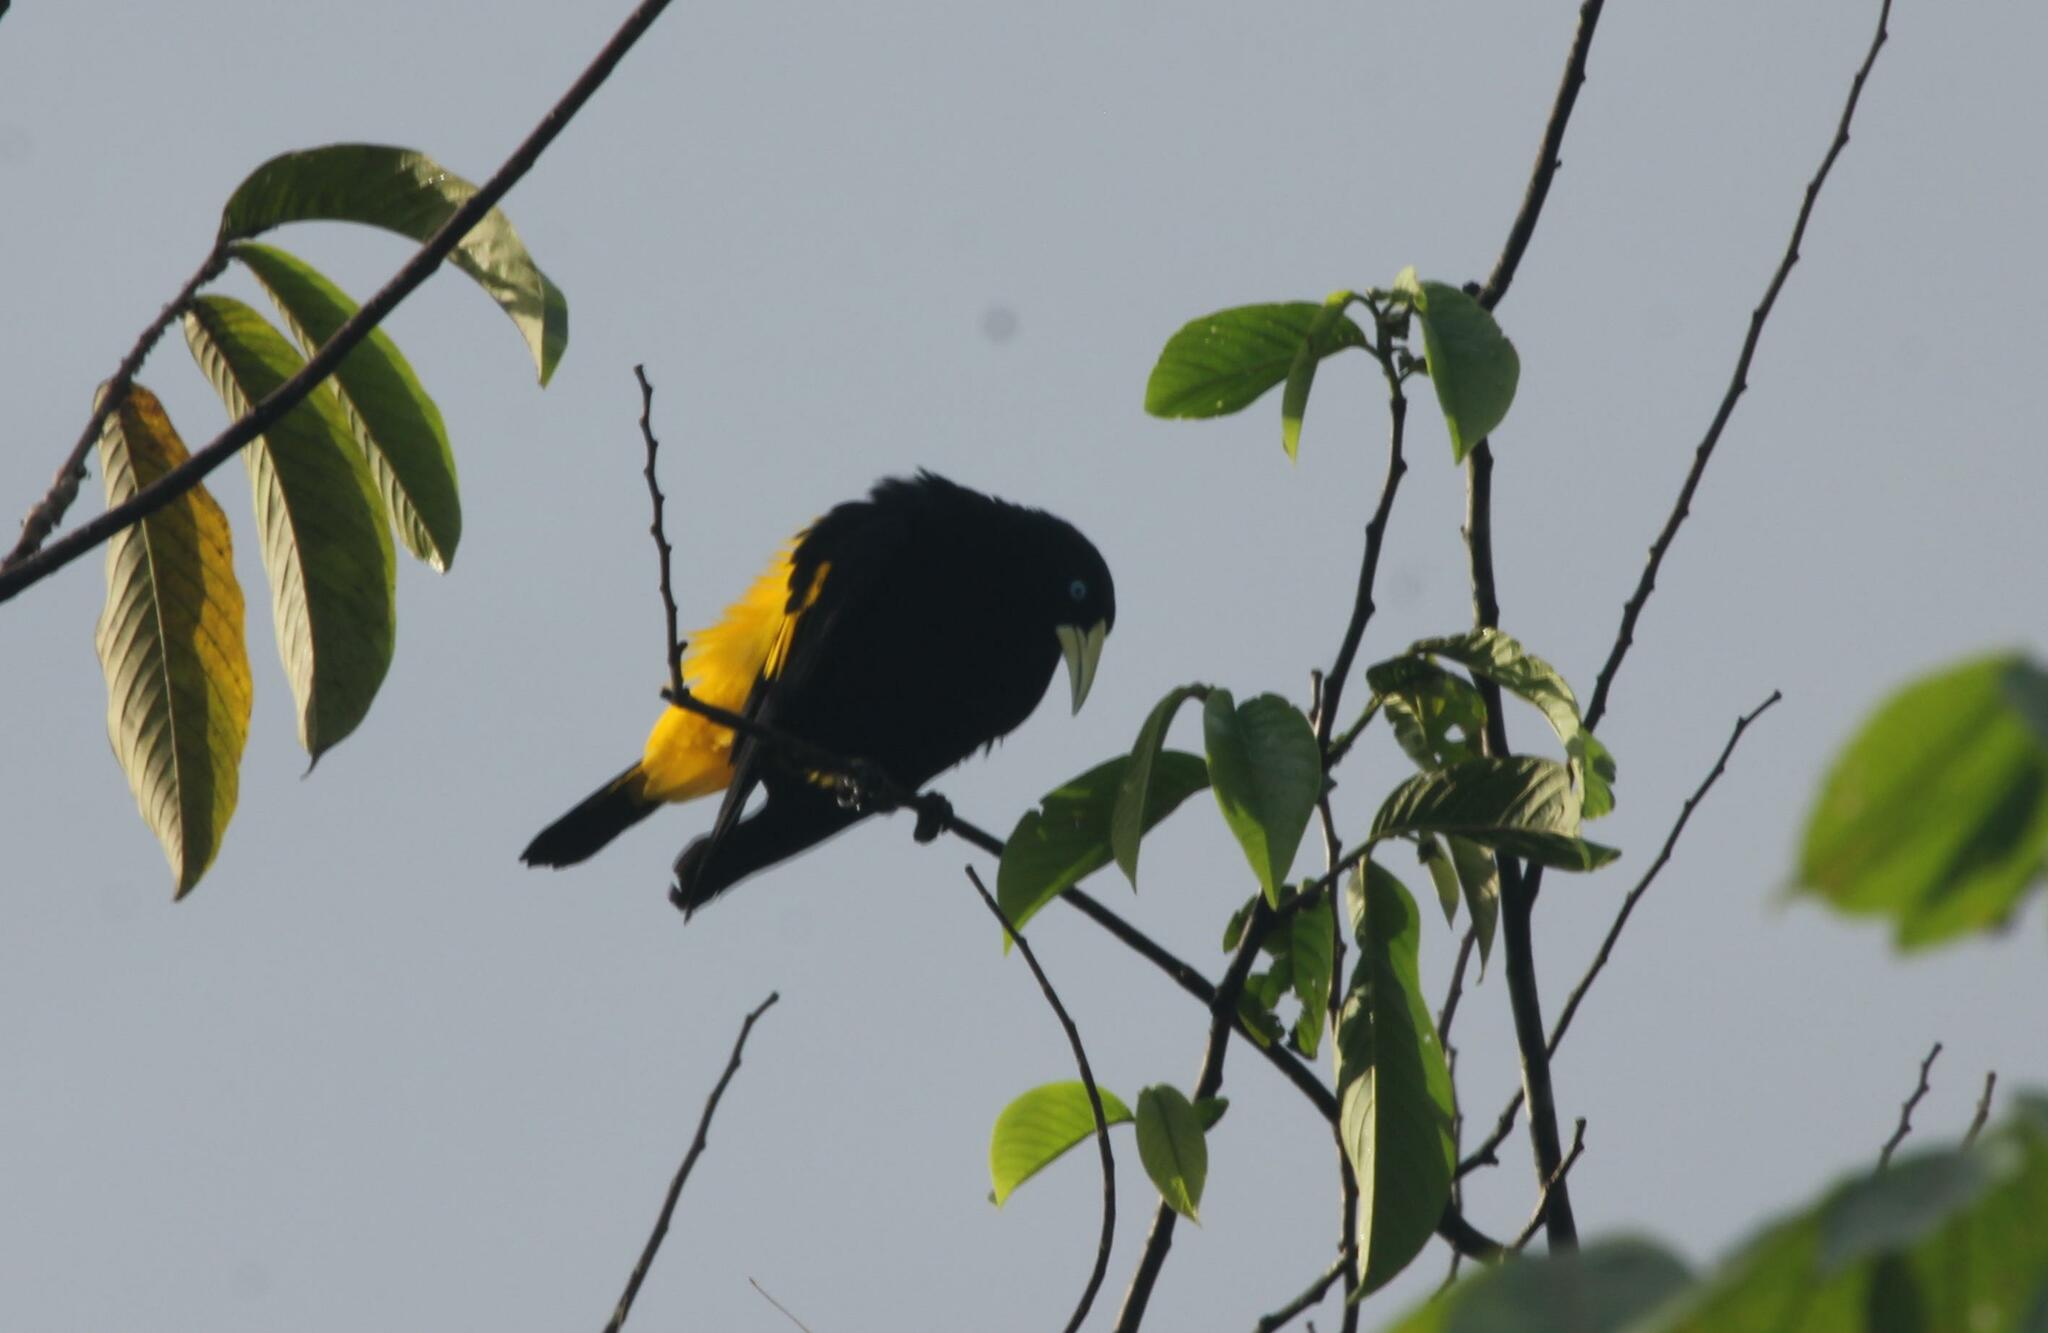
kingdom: Animalia
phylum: Chordata
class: Aves
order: Passeriformes
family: Icteridae
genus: Cacicus
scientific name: Cacicus cela
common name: Yellow-rumped cacique
